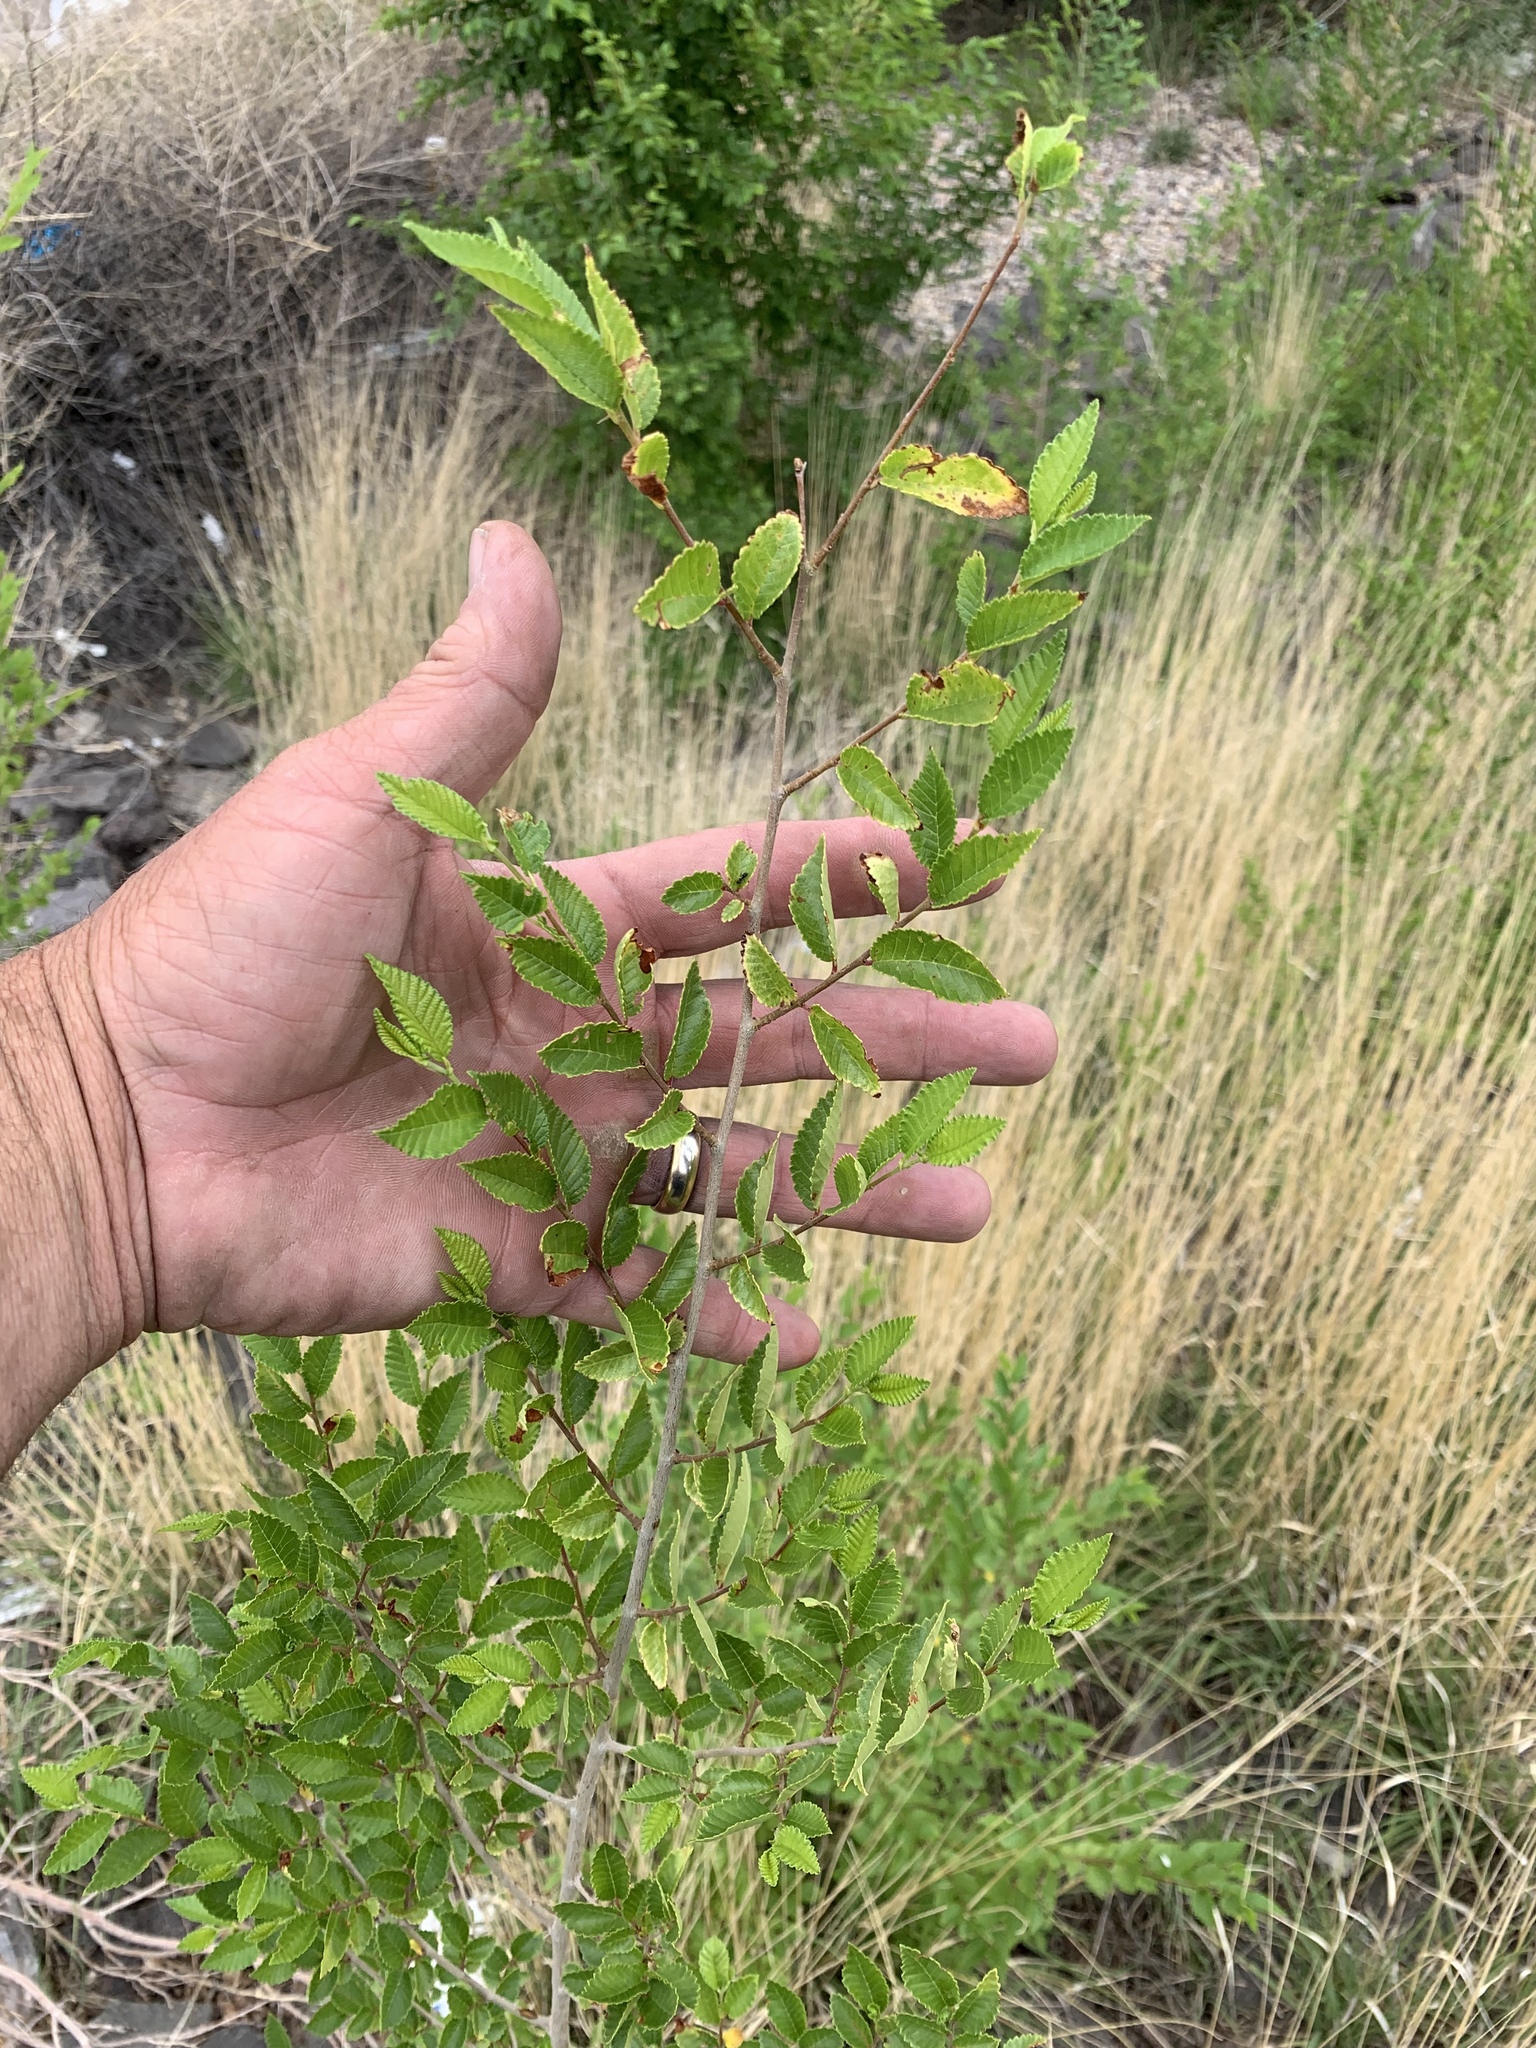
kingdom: Plantae
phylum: Tracheophyta
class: Magnoliopsida
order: Rosales
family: Ulmaceae
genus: Ulmus
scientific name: Ulmus pumila
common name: Siberian elm
